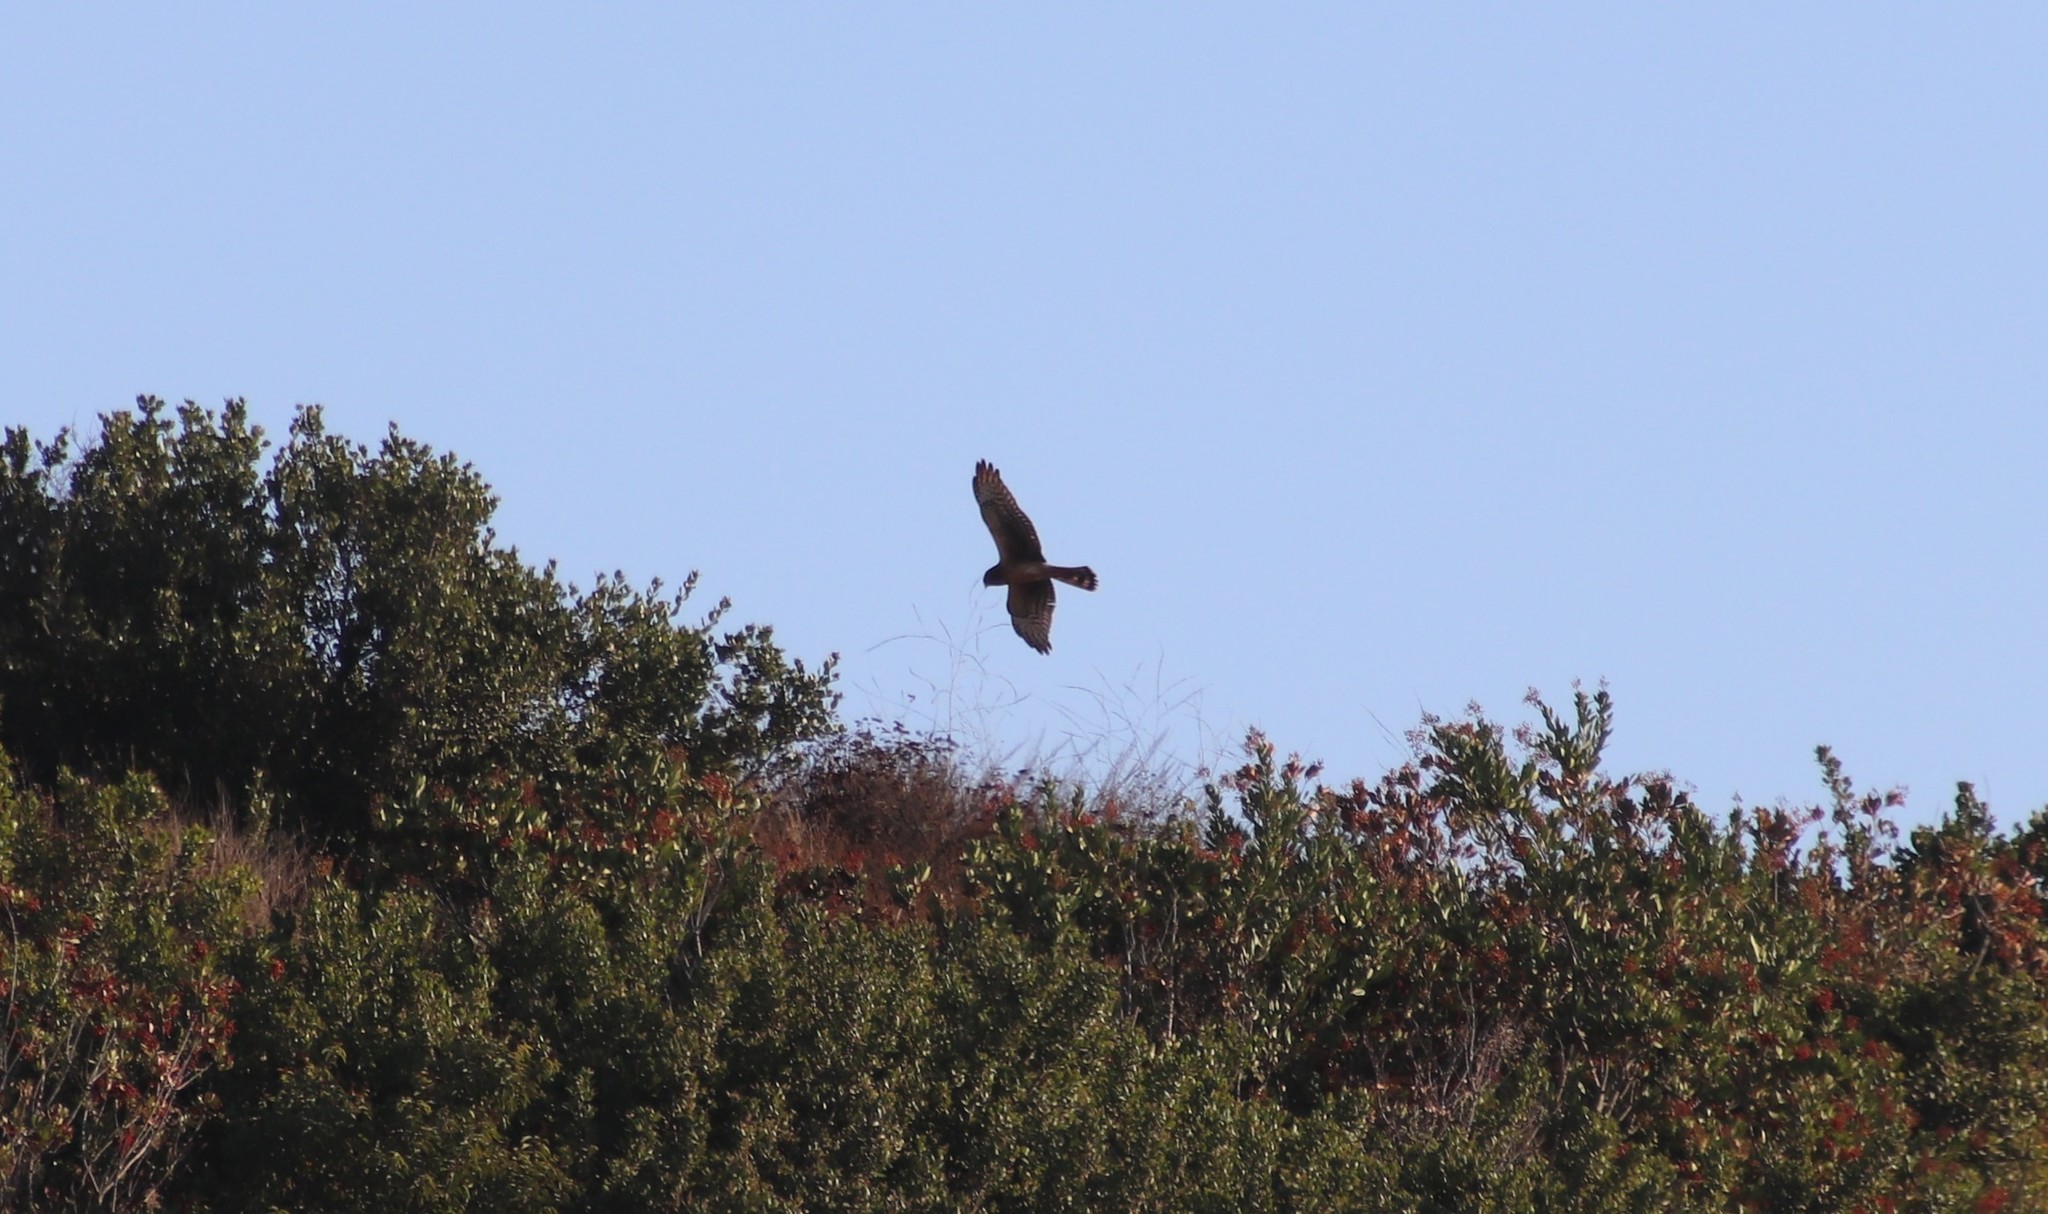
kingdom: Animalia
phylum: Chordata
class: Aves
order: Accipitriformes
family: Accipitridae
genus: Circus
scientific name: Circus cyaneus
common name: Hen harrier
